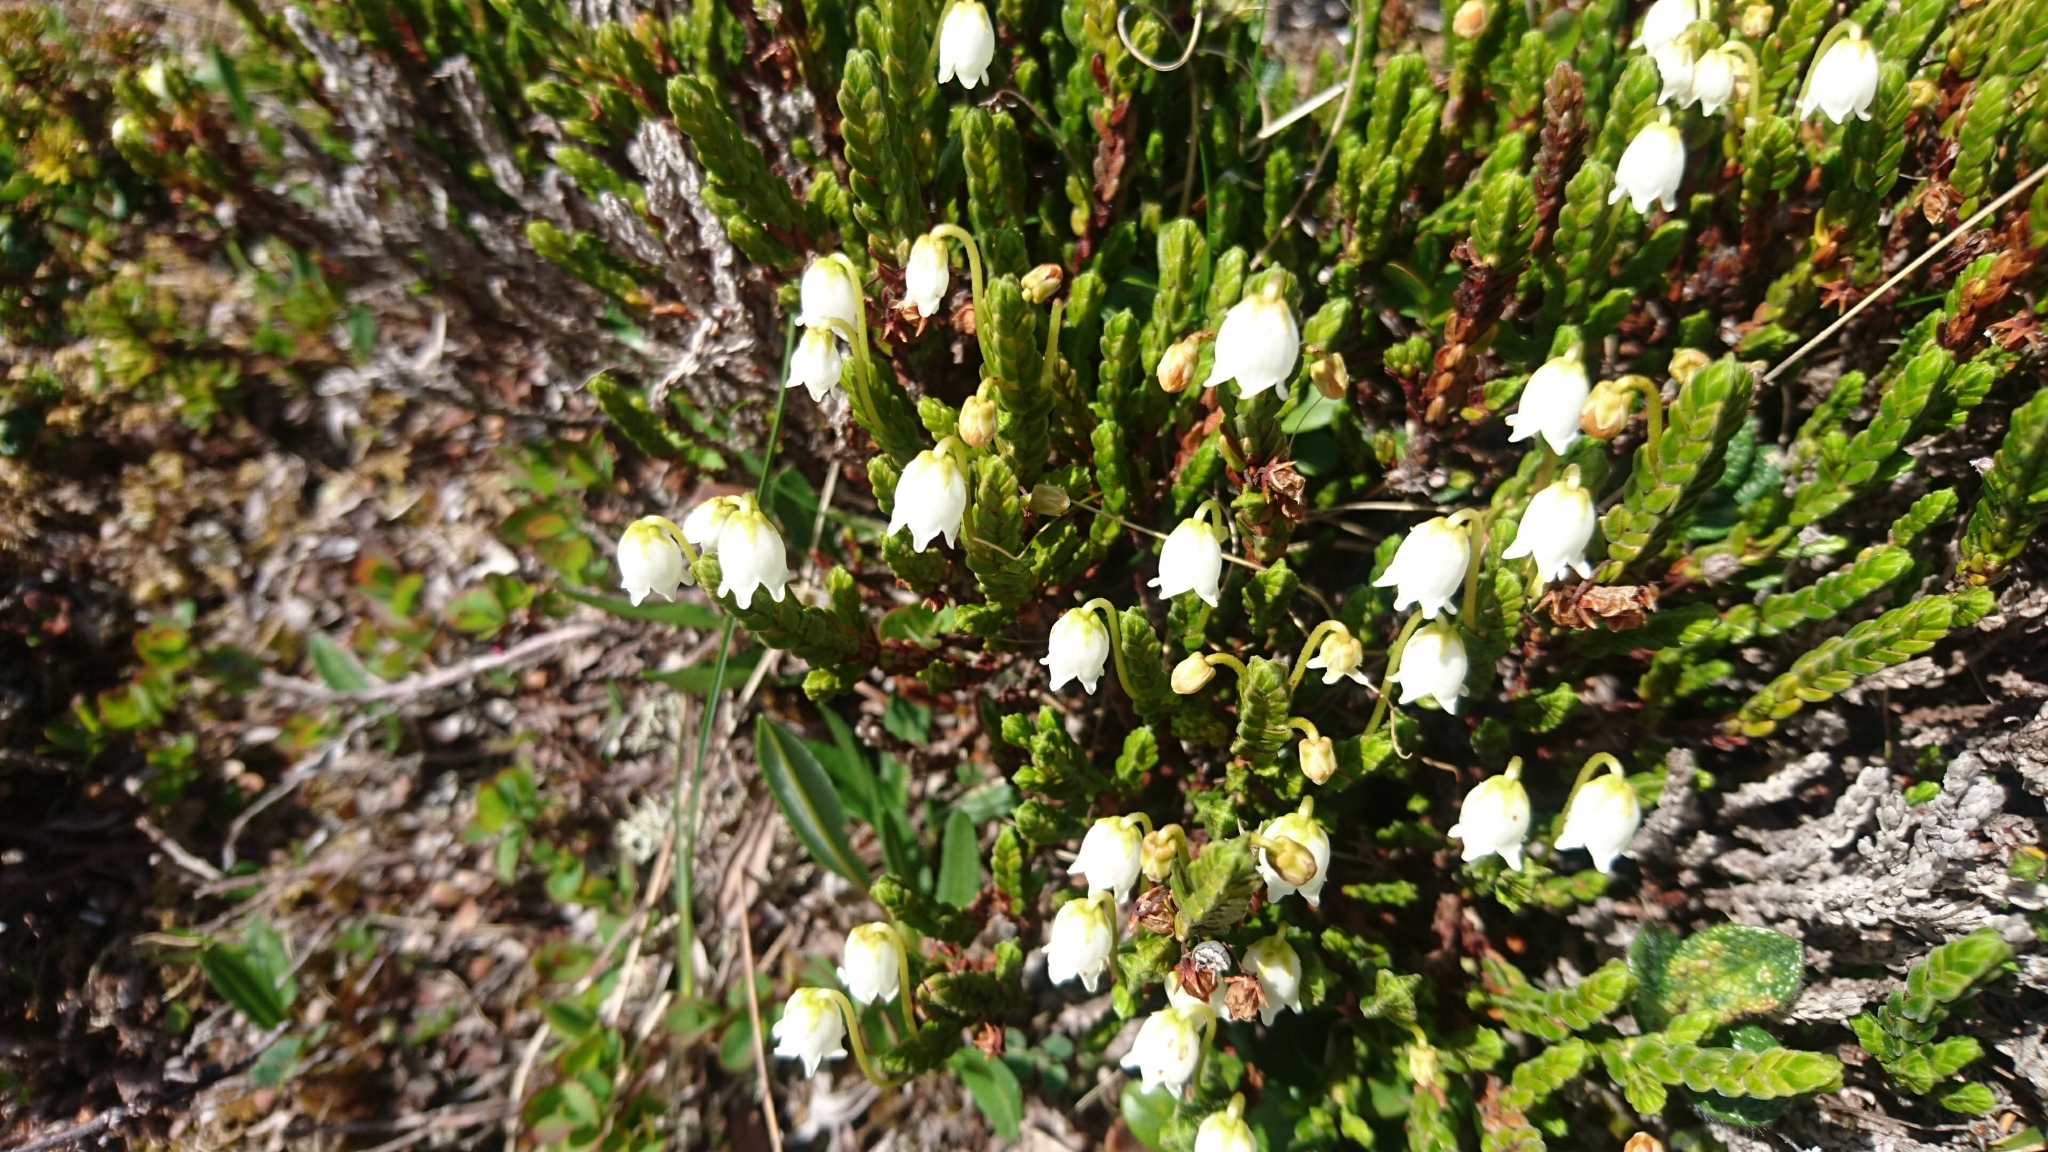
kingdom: Plantae
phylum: Tracheophyta
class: Magnoliopsida
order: Ericales
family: Ericaceae
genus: Cassiope
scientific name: Cassiope tetragona
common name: Arctic bell heather
